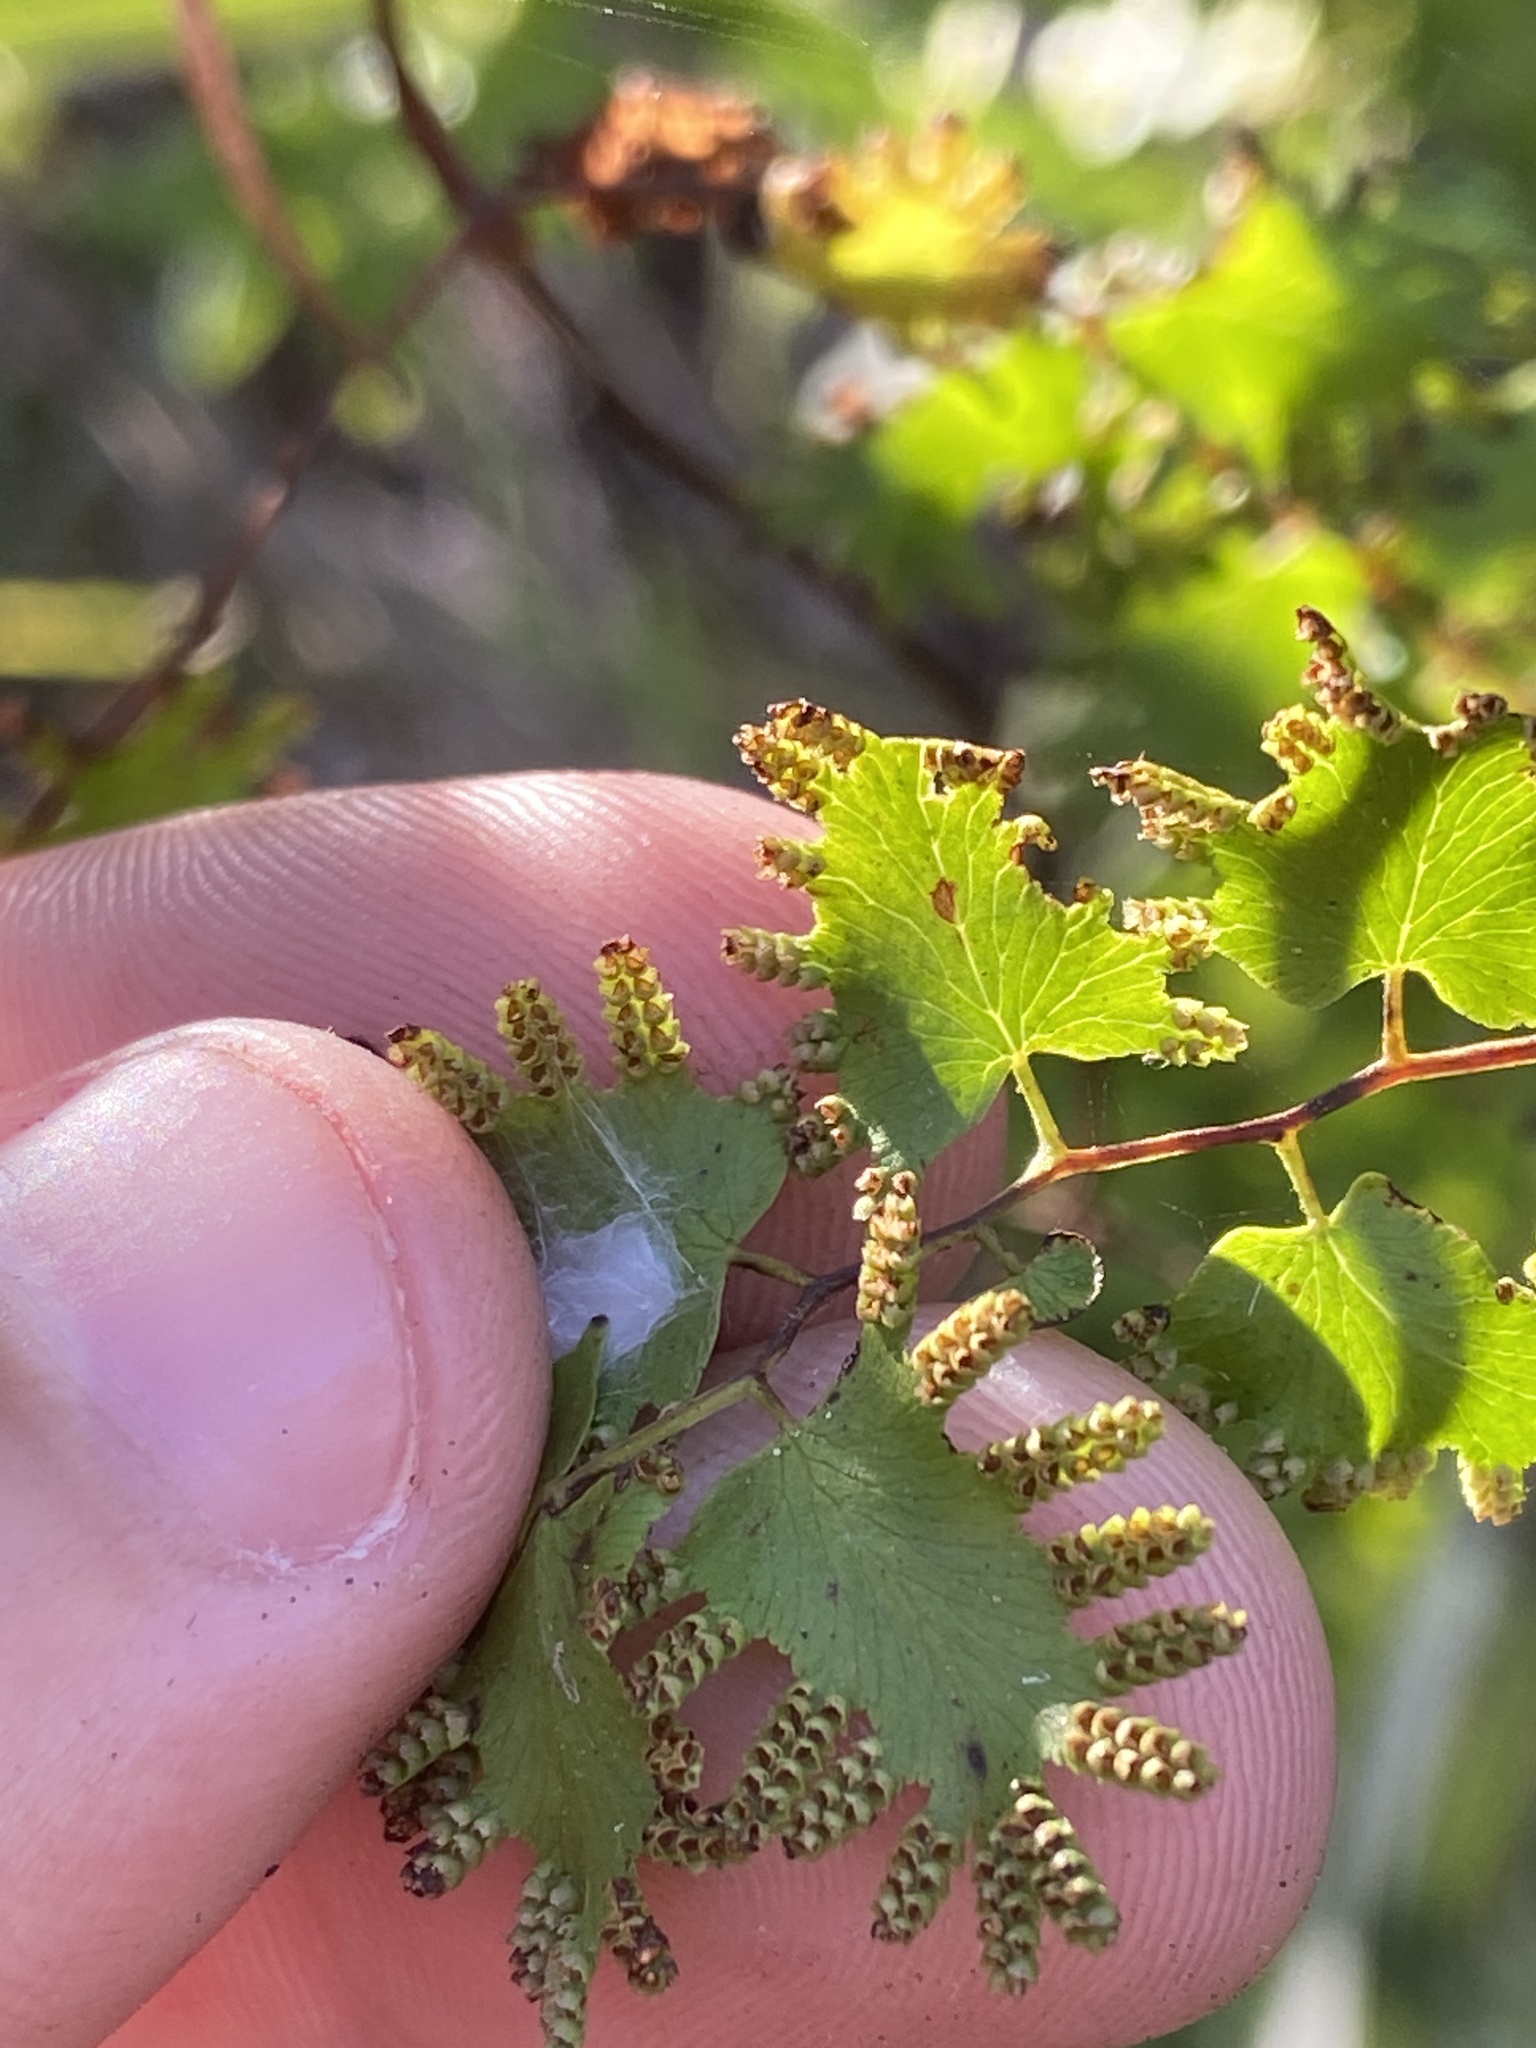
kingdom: Plantae
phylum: Tracheophyta
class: Polypodiopsida
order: Schizaeales
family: Lygodiaceae
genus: Lygodium
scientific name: Lygodium microphyllum
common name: Small-leaf climbing fern
